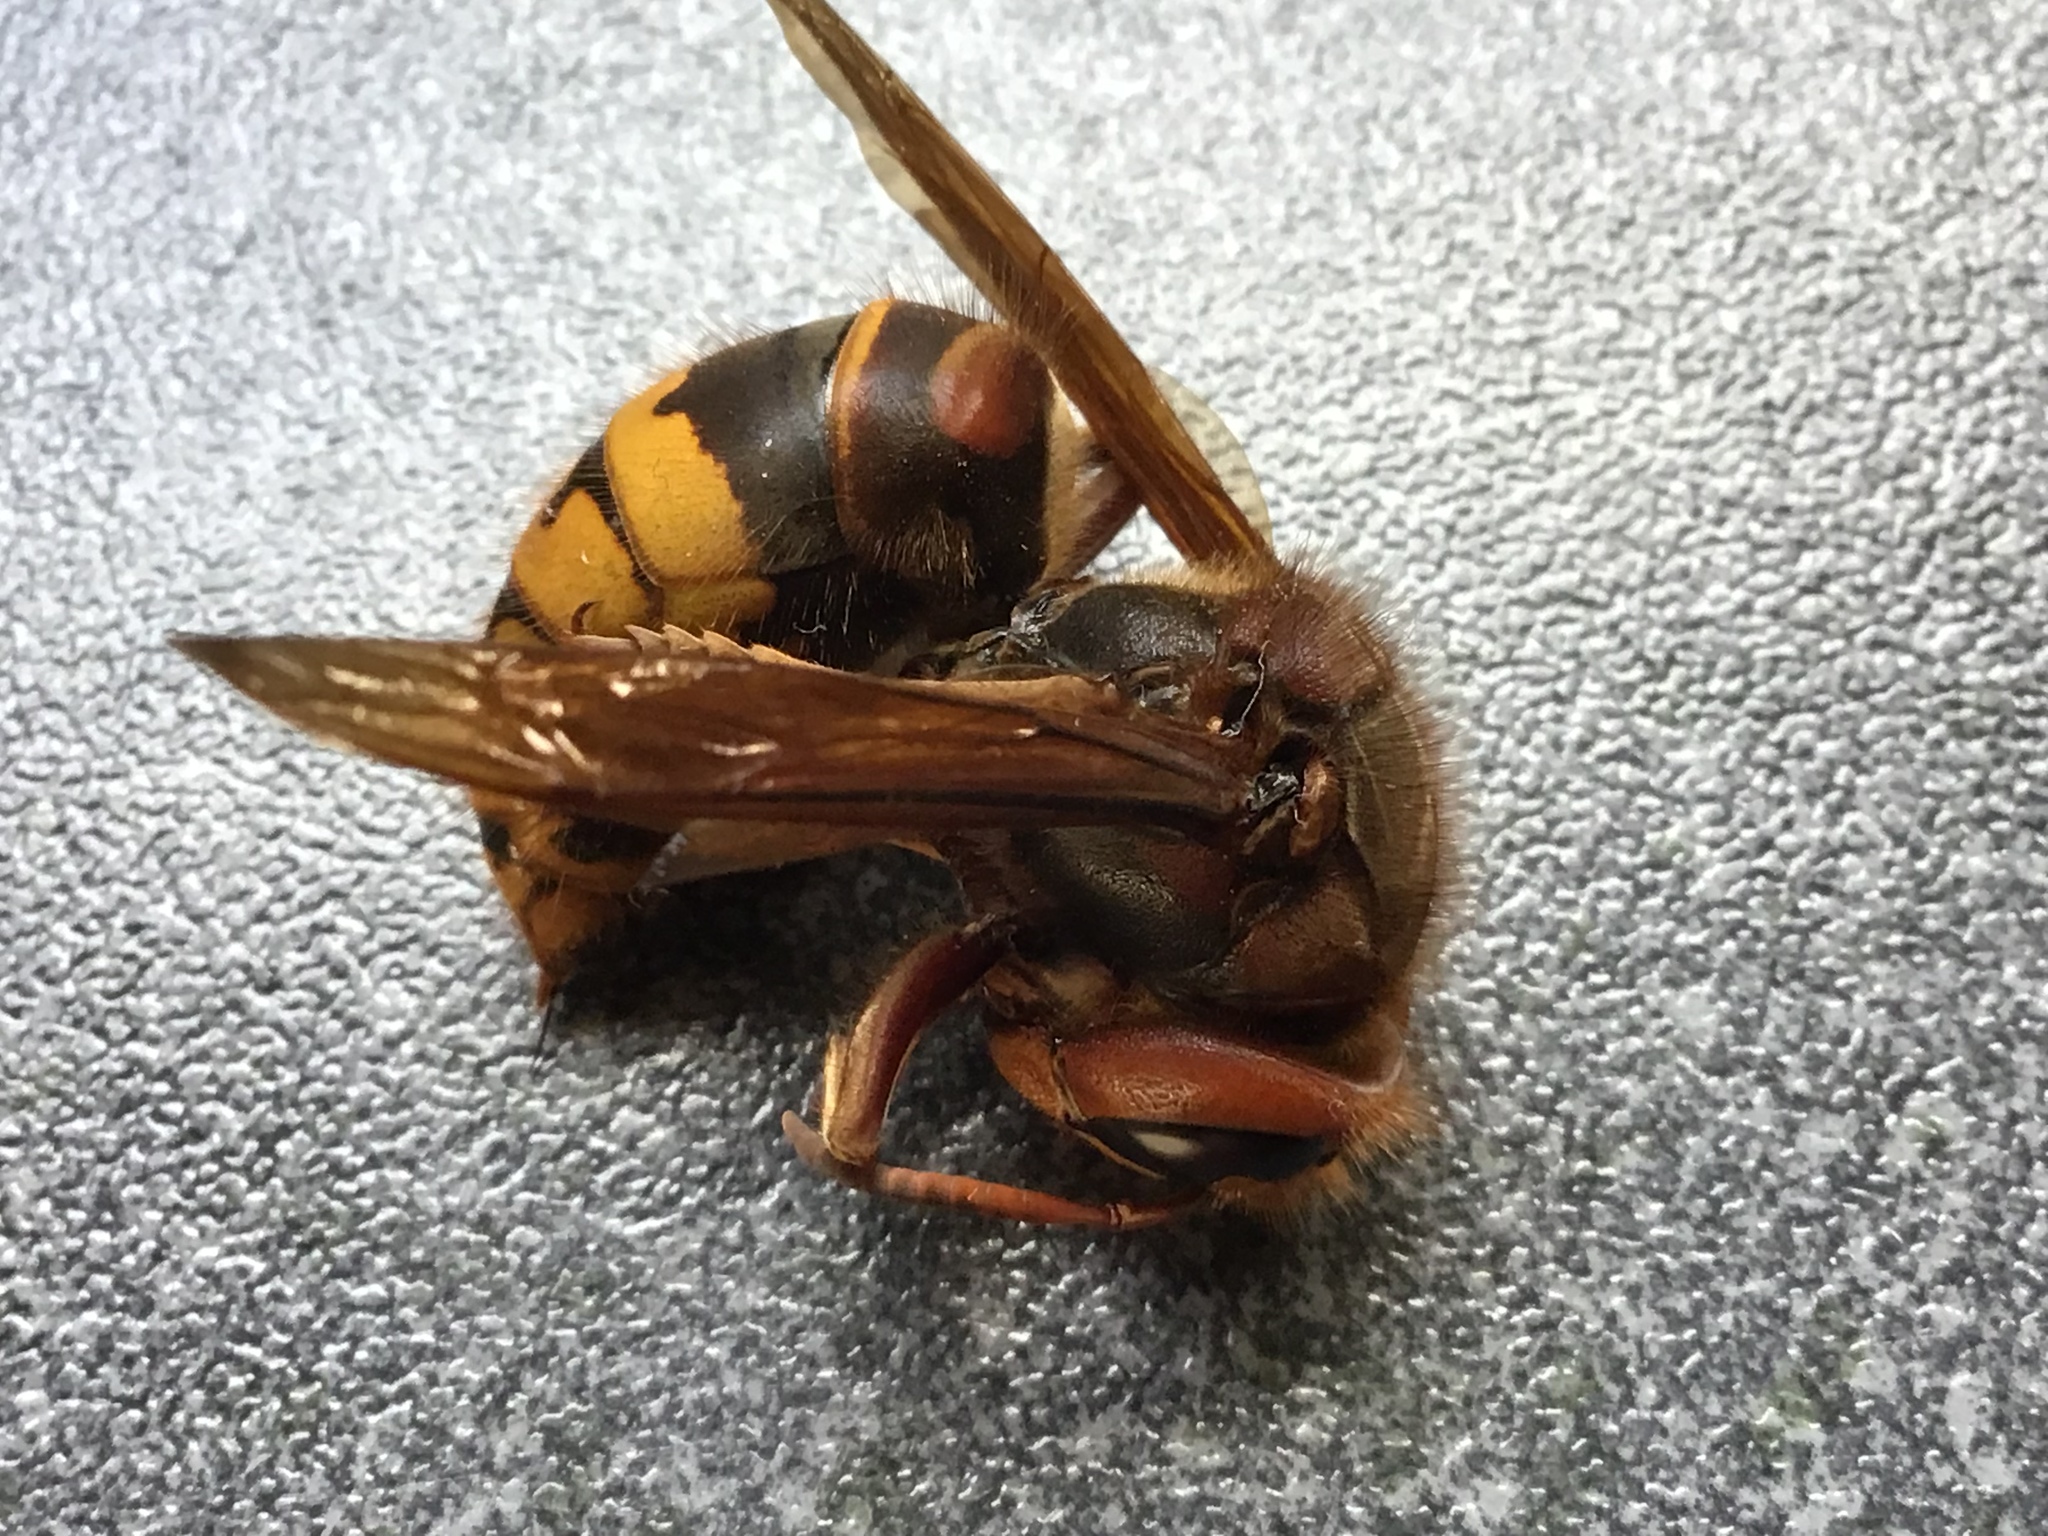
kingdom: Animalia
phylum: Arthropoda
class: Insecta
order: Hymenoptera
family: Vespidae
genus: Vespa
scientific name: Vespa crabro
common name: Hornet
